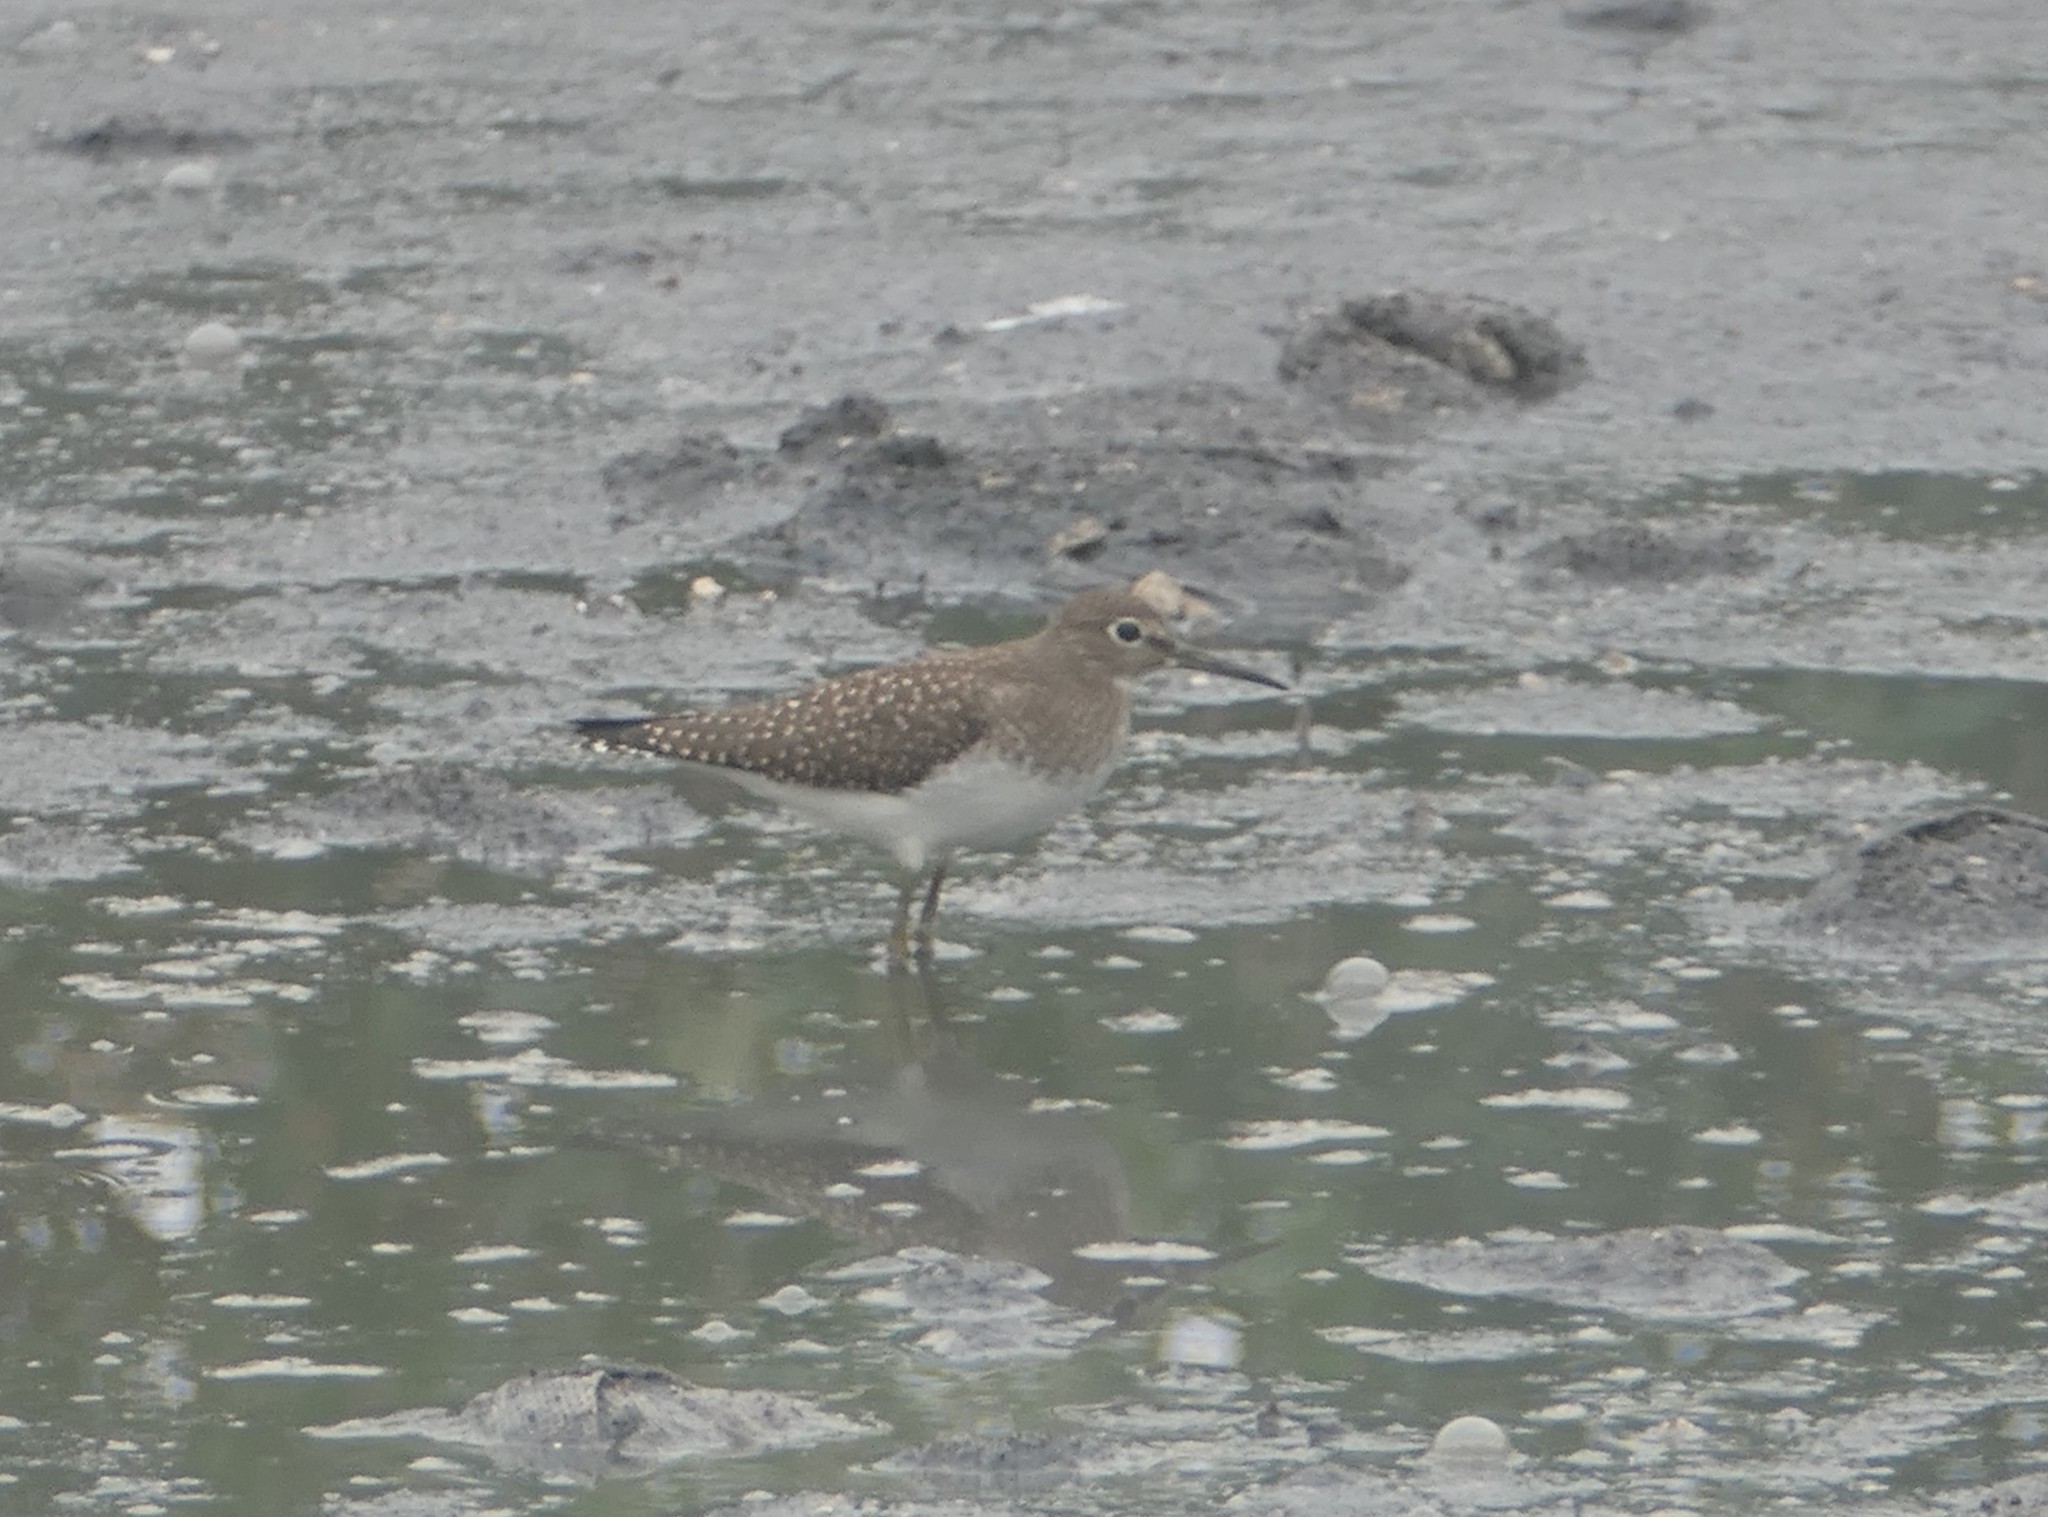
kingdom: Animalia
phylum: Chordata
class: Aves
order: Charadriiformes
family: Scolopacidae
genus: Tringa
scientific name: Tringa solitaria
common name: Solitary sandpiper
